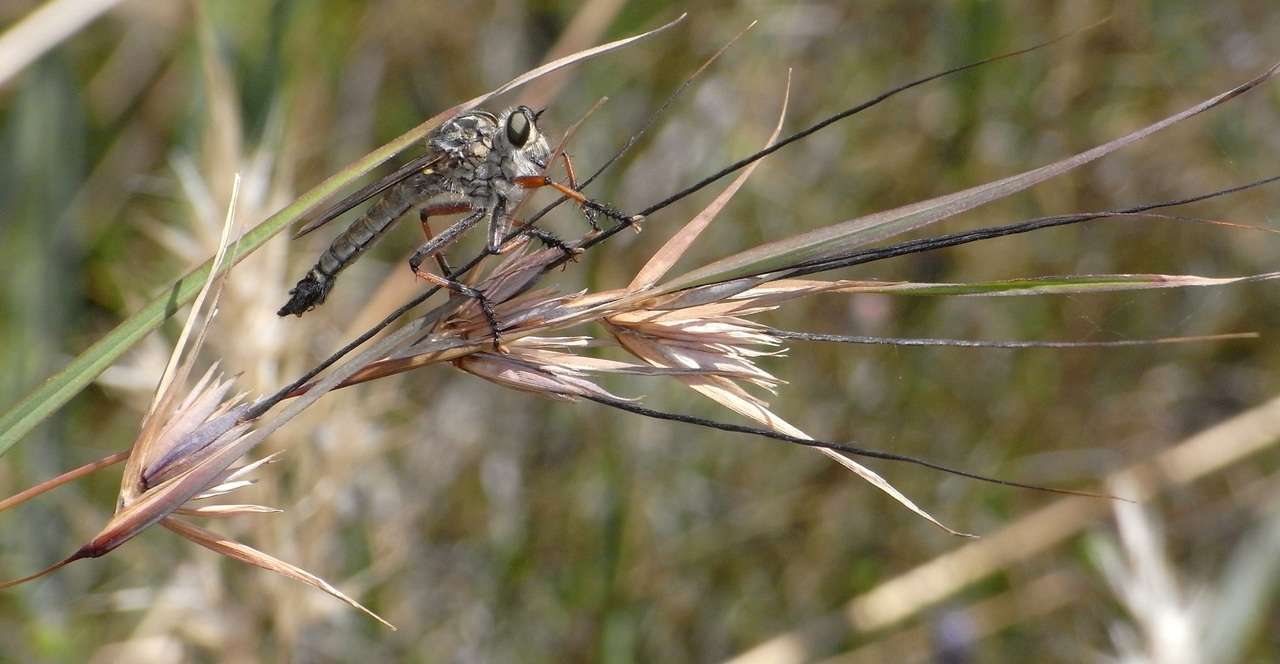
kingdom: Plantae
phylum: Tracheophyta
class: Liliopsida
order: Poales
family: Poaceae
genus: Themeda
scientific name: Themeda triandra
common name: Kangaroo grass
